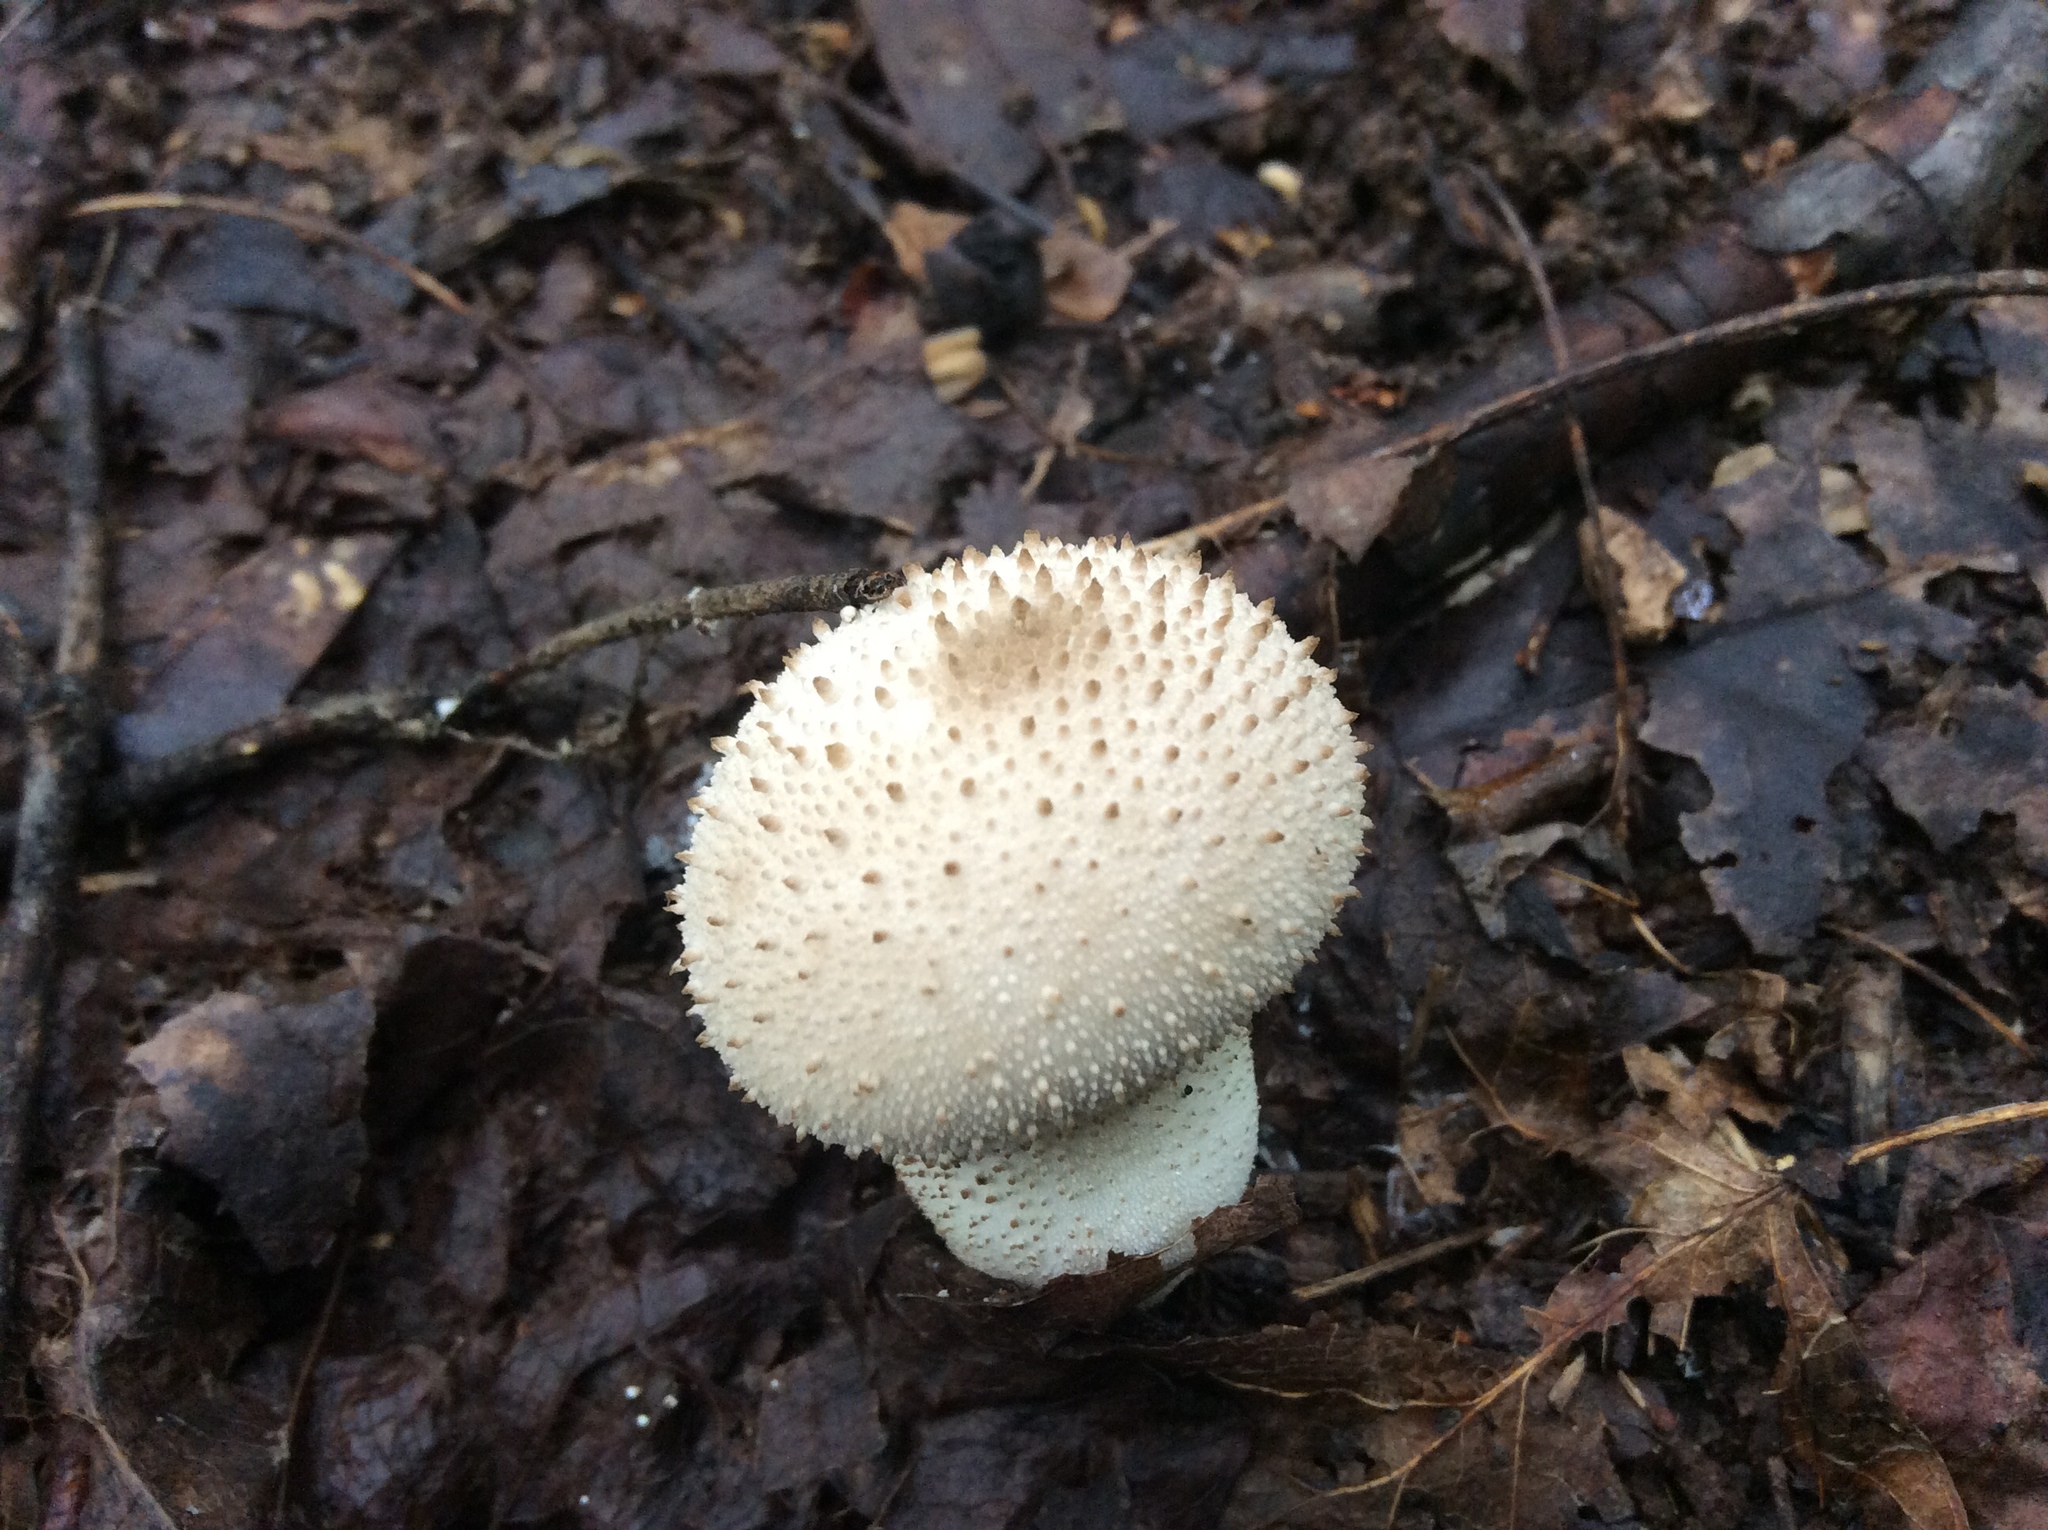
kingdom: Fungi
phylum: Basidiomycota
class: Agaricomycetes
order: Agaricales
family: Lycoperdaceae
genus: Lycoperdon
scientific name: Lycoperdon perlatum
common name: Common puffball
